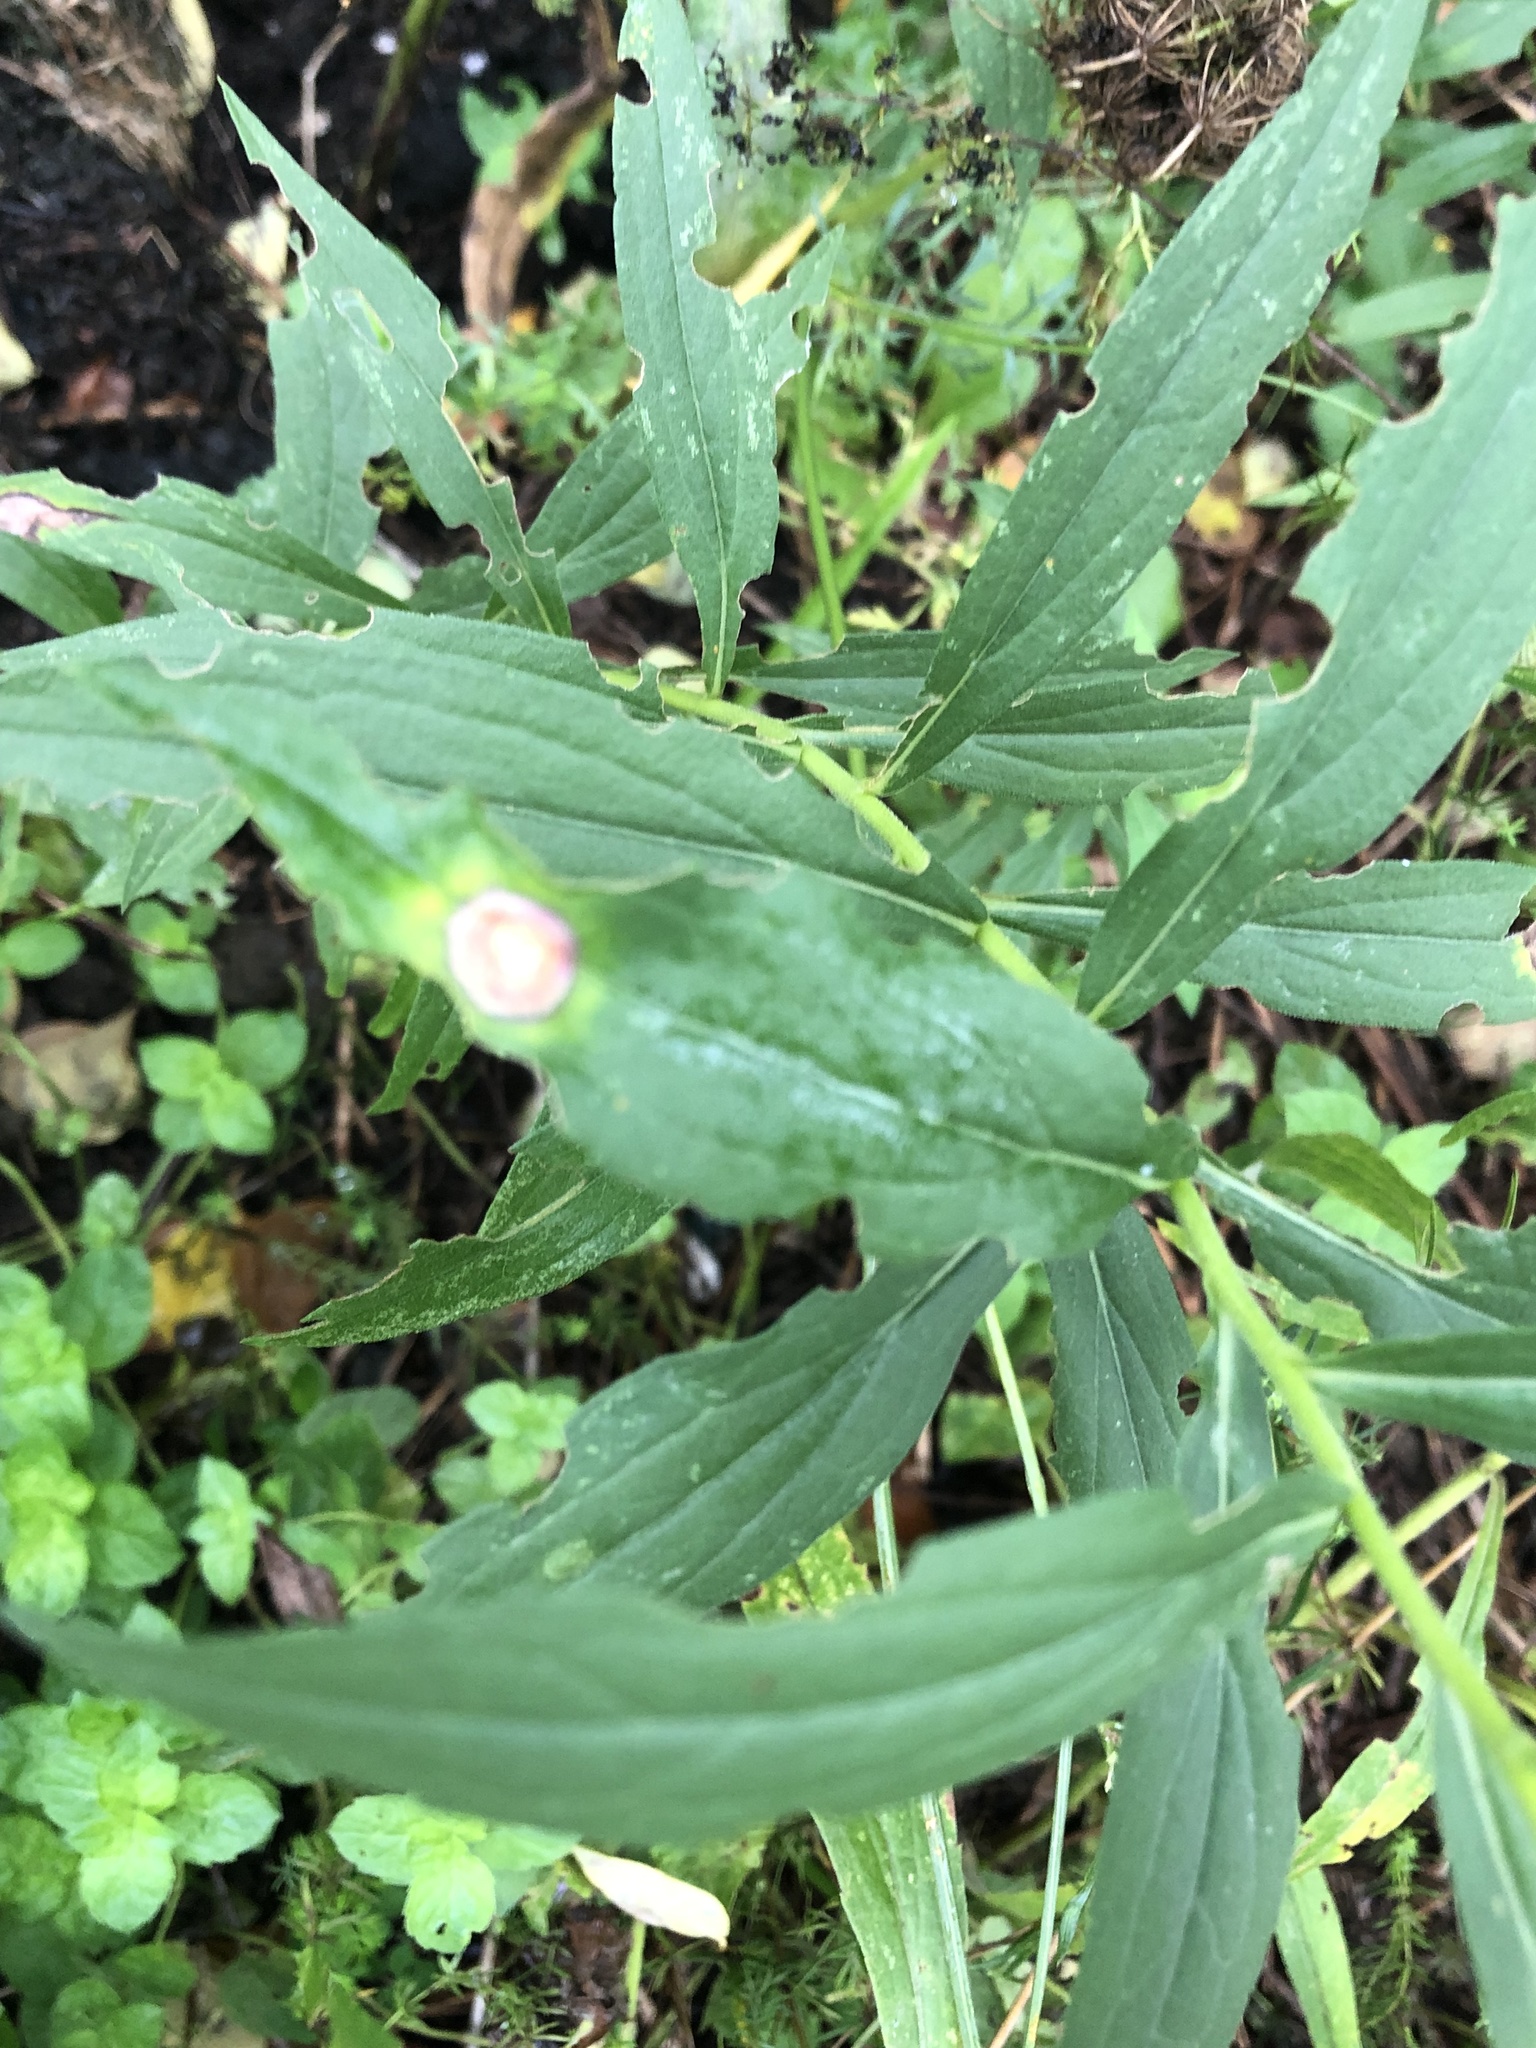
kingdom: Animalia
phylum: Arthropoda
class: Insecta
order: Diptera
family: Cecidomyiidae
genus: Asteromyia
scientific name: Asteromyia carbonifera
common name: Carbonifera goldenrod gall midge
